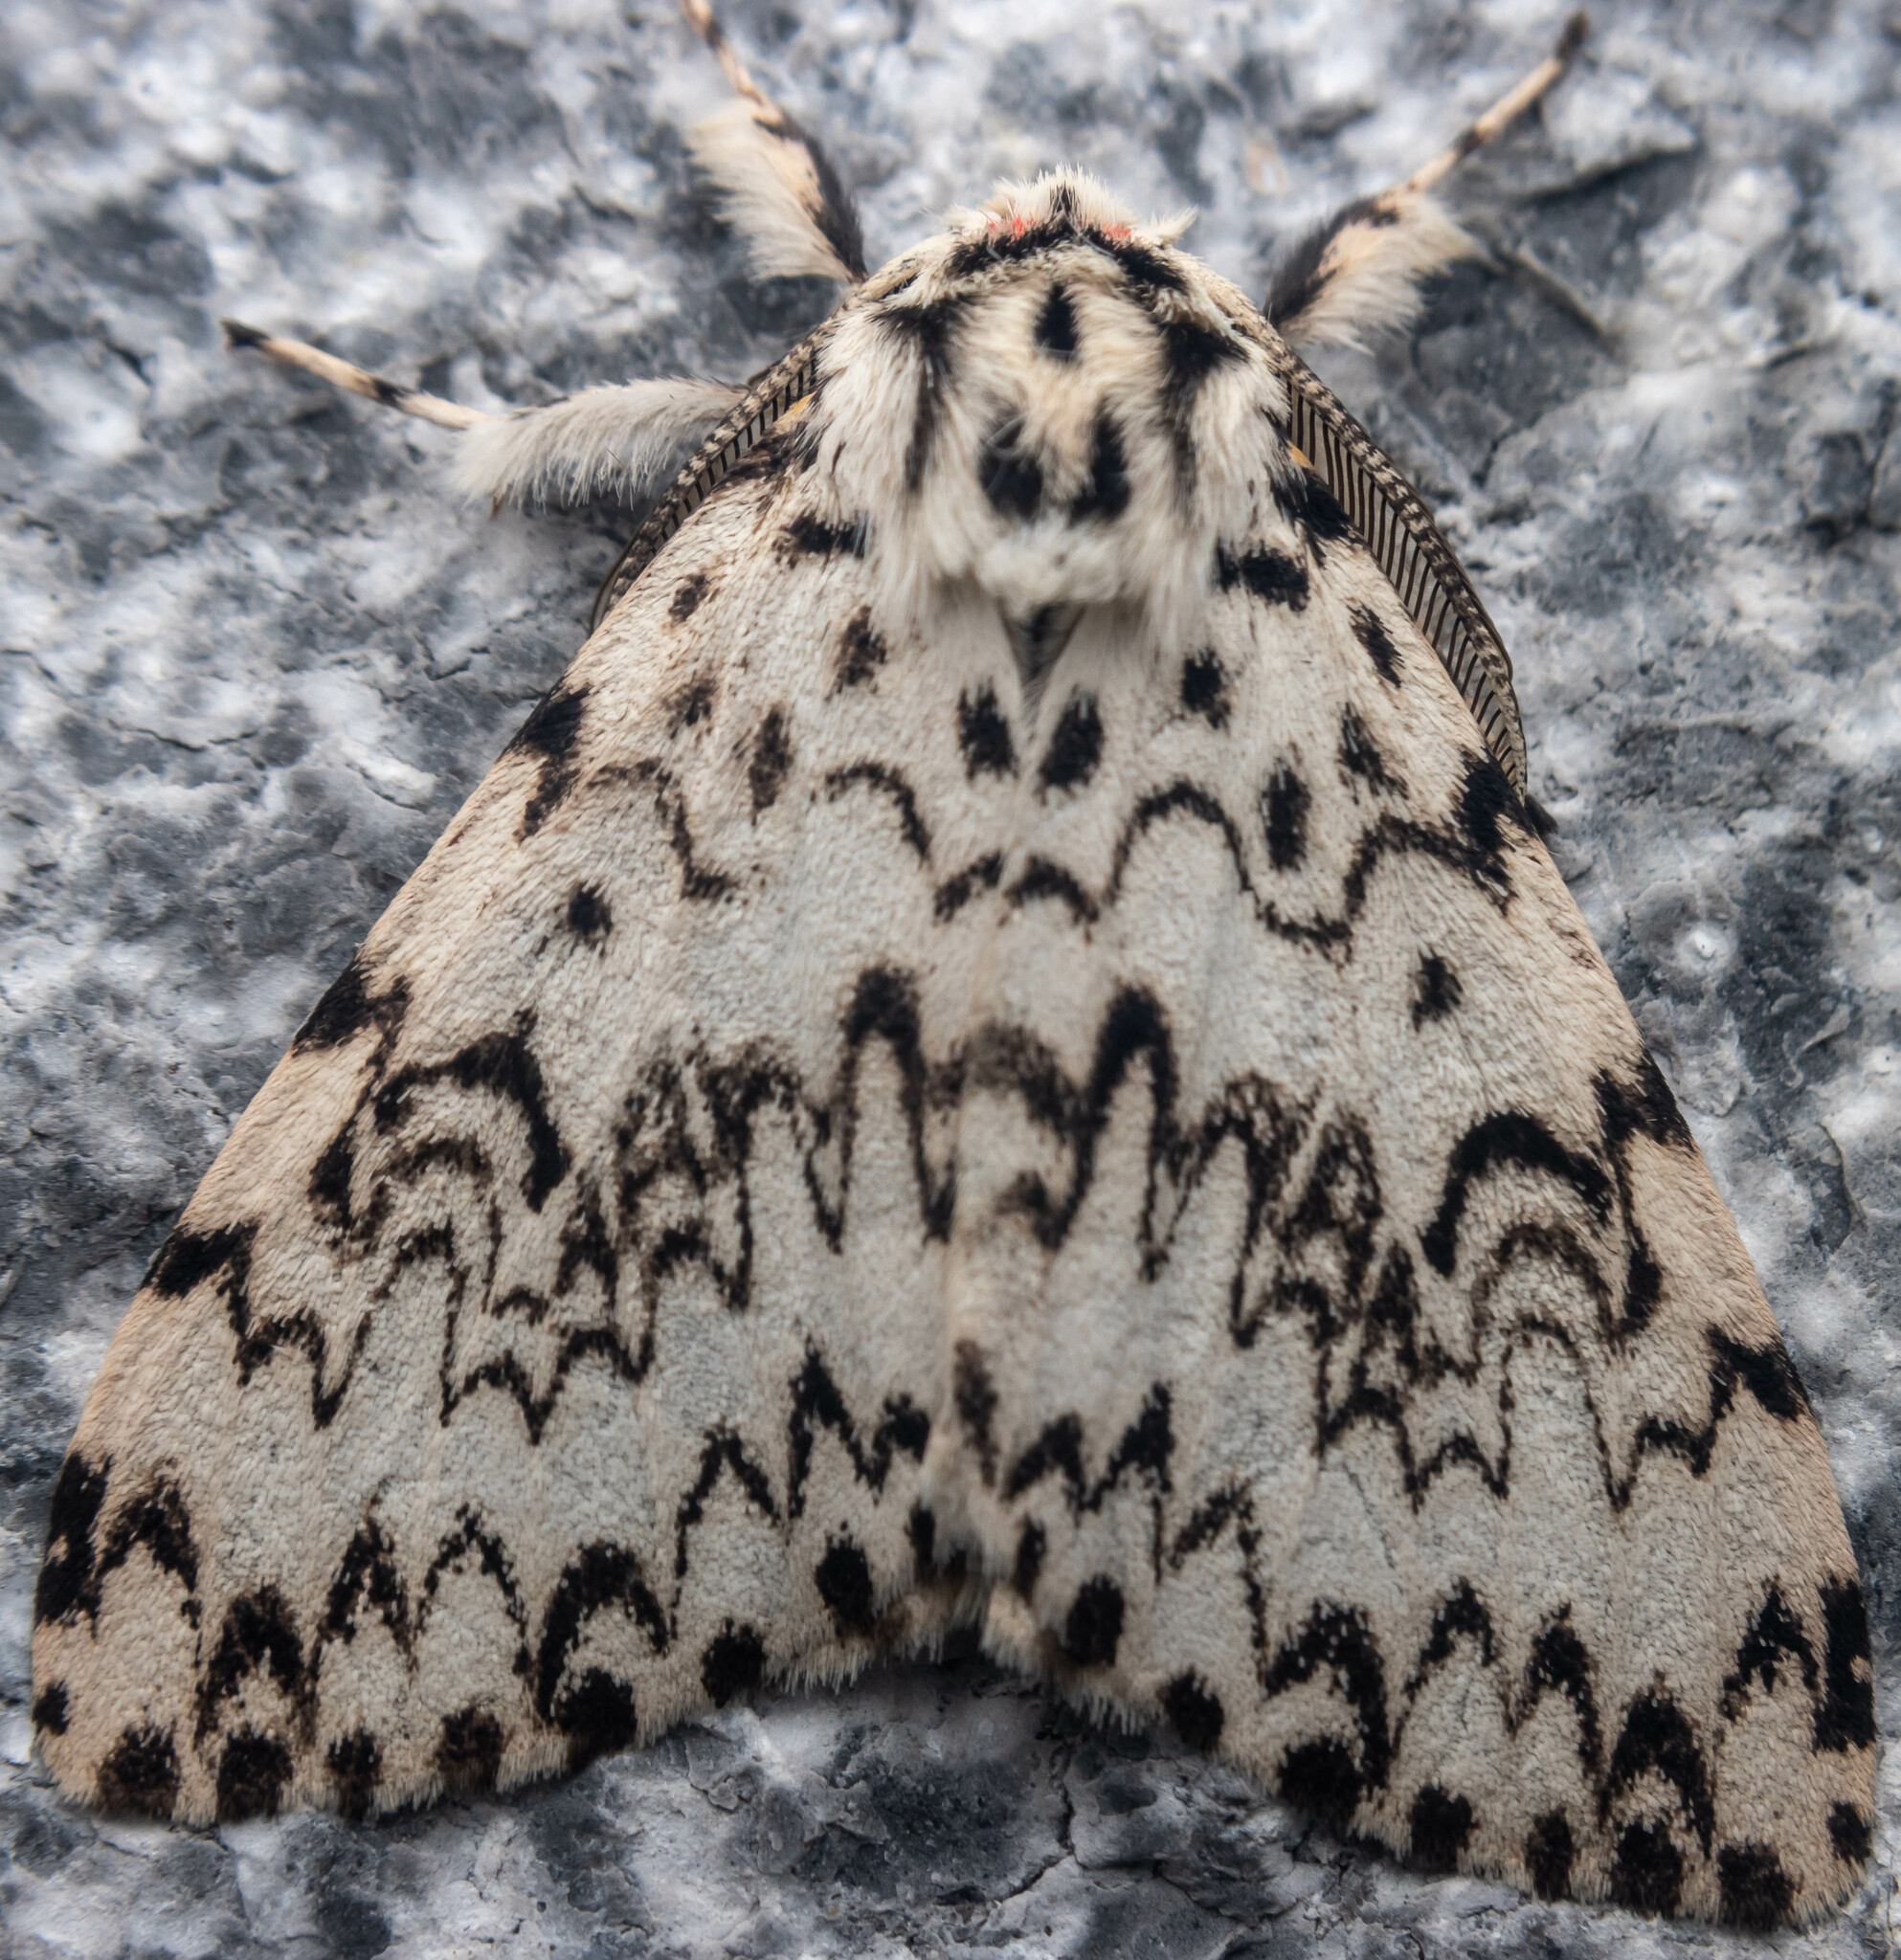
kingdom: Animalia
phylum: Arthropoda
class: Insecta
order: Lepidoptera
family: Erebidae
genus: Lymantria
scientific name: Lymantria monacha
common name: Black arches
